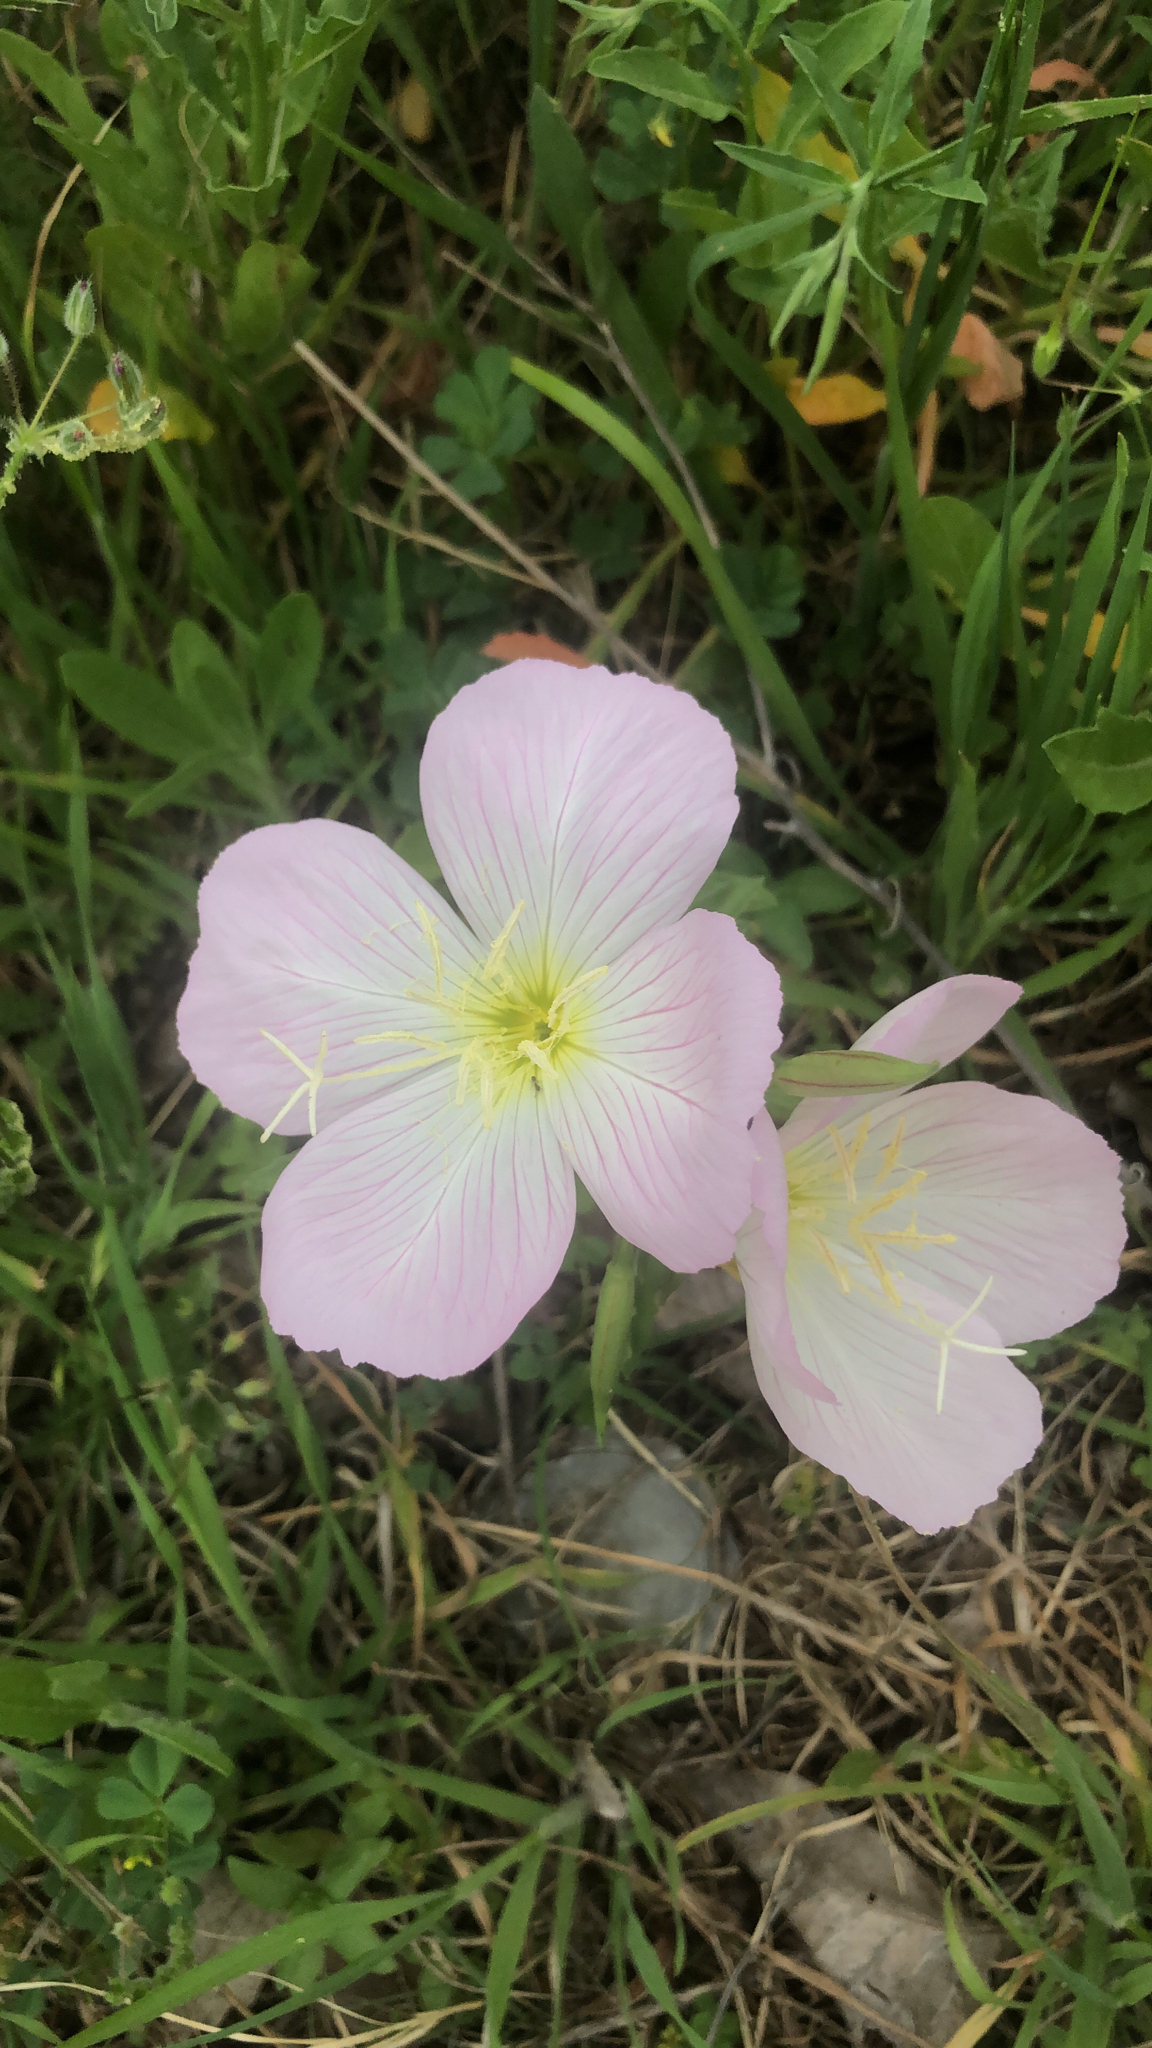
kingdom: Plantae
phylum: Tracheophyta
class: Magnoliopsida
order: Myrtales
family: Onagraceae
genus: Oenothera
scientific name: Oenothera speciosa
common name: White evening-primrose
